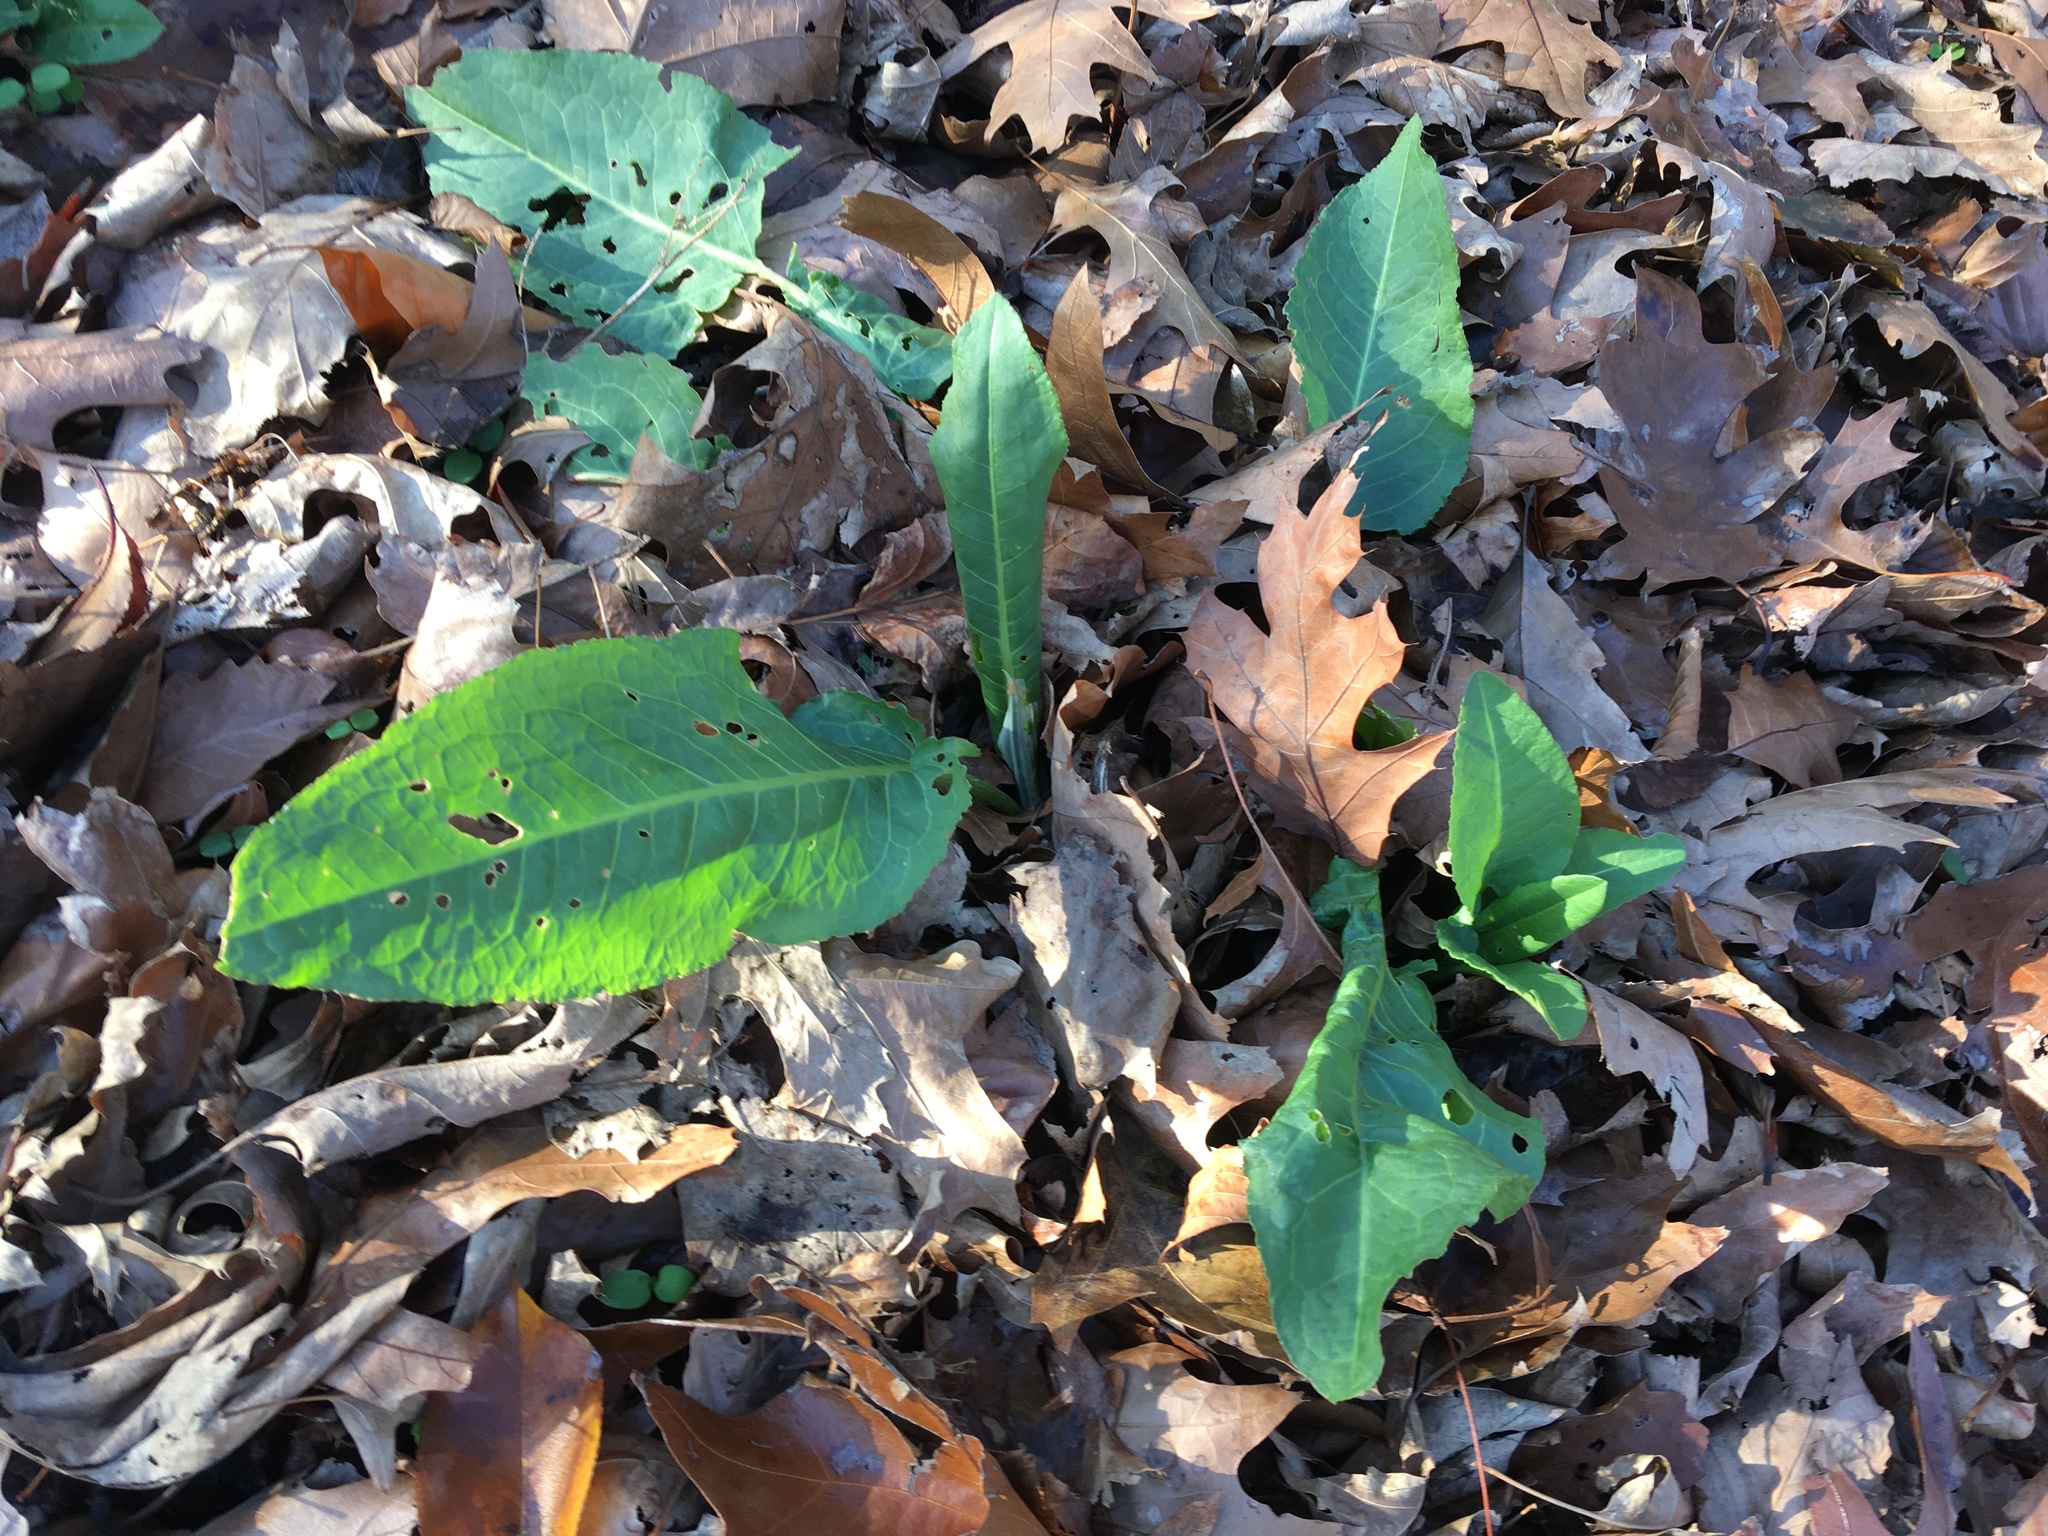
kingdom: Plantae
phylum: Tracheophyta
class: Magnoliopsida
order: Caryophyllales
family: Polygonaceae
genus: Rumex
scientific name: Rumex obtusifolius
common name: Bitter dock
